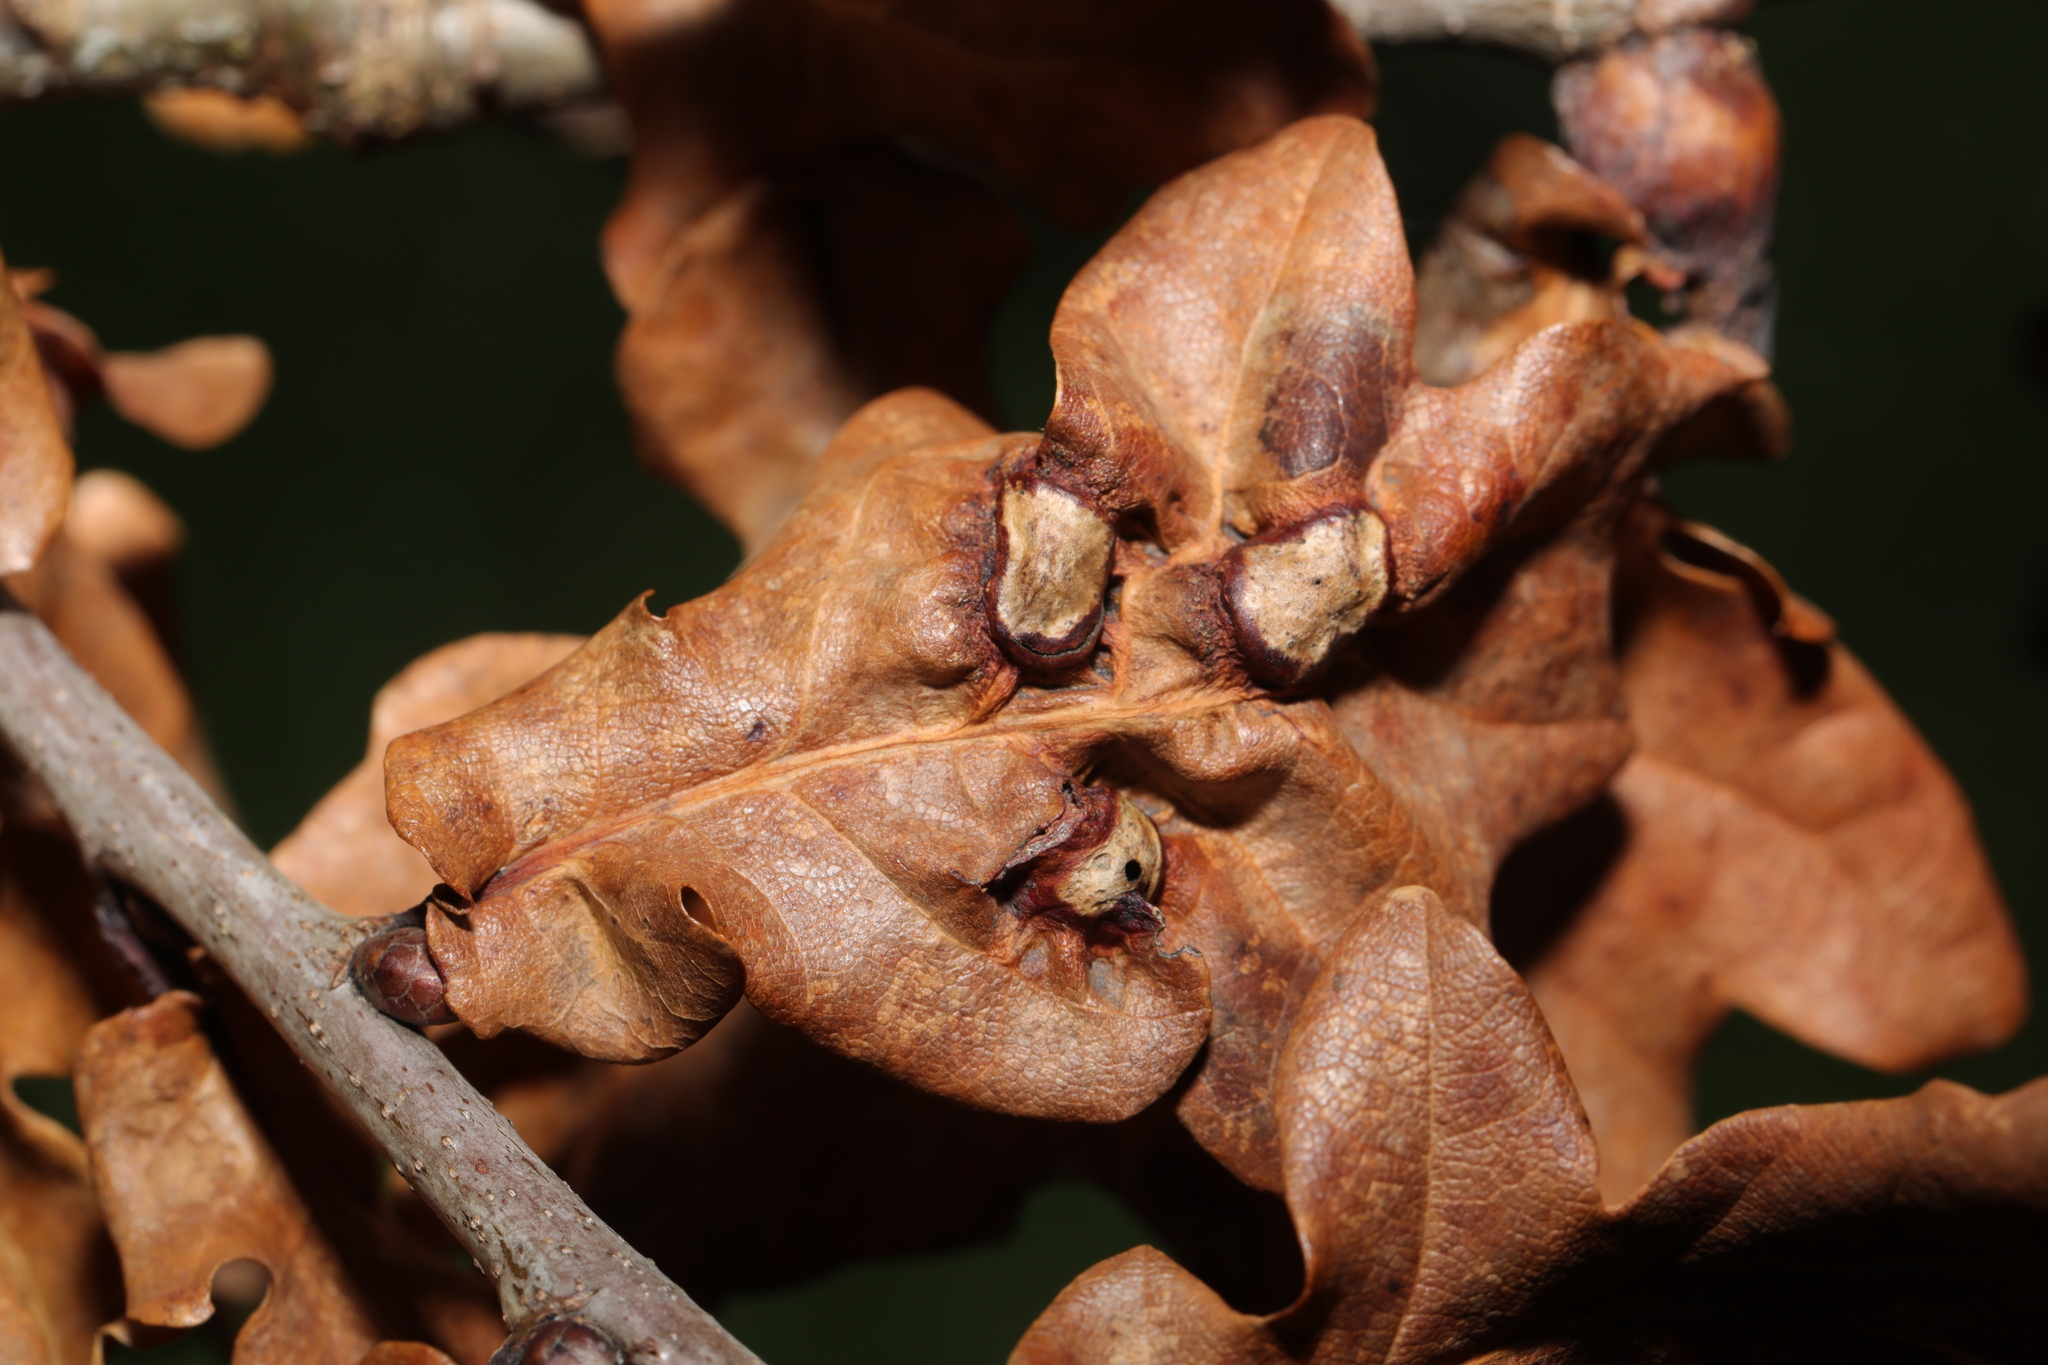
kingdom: Animalia
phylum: Arthropoda
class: Insecta
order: Hymenoptera
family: Cynipidae
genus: Andricus
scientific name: Andricus curvator
